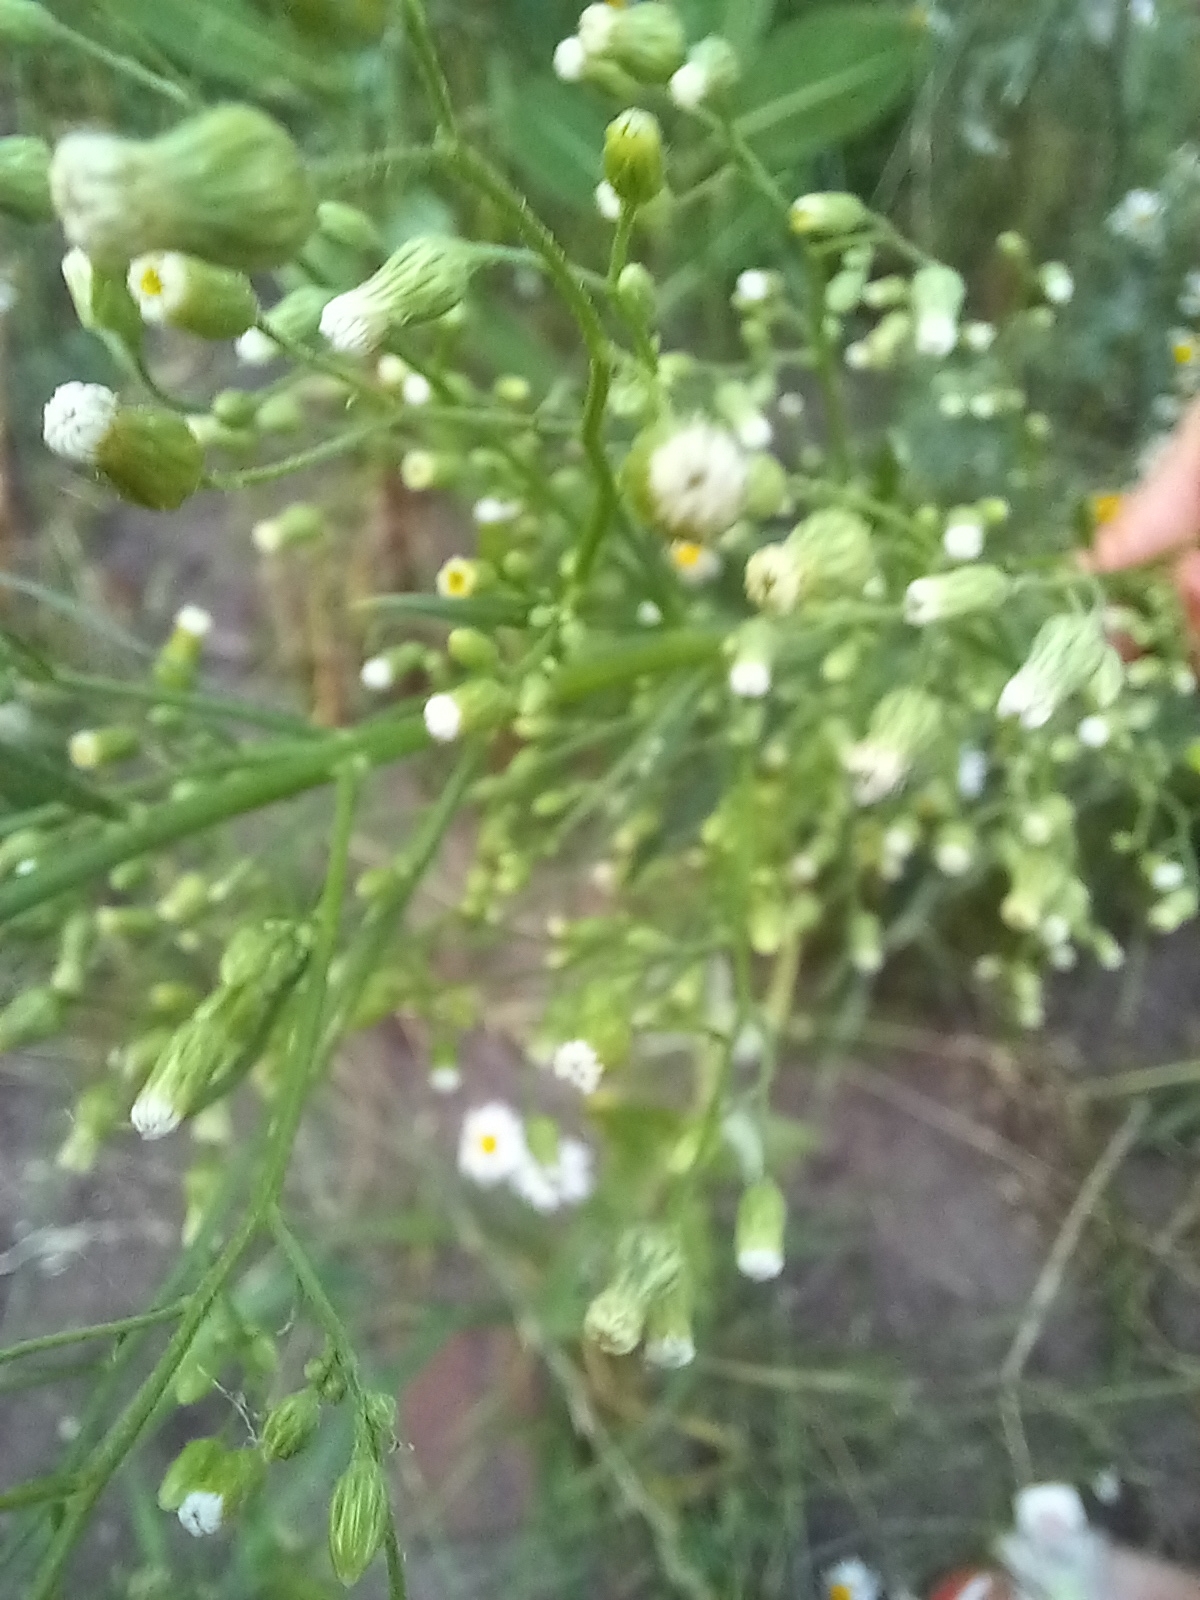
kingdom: Plantae
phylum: Tracheophyta
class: Magnoliopsida
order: Asterales
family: Asteraceae
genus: Erigeron
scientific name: Erigeron canadensis
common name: Canadian fleabane
